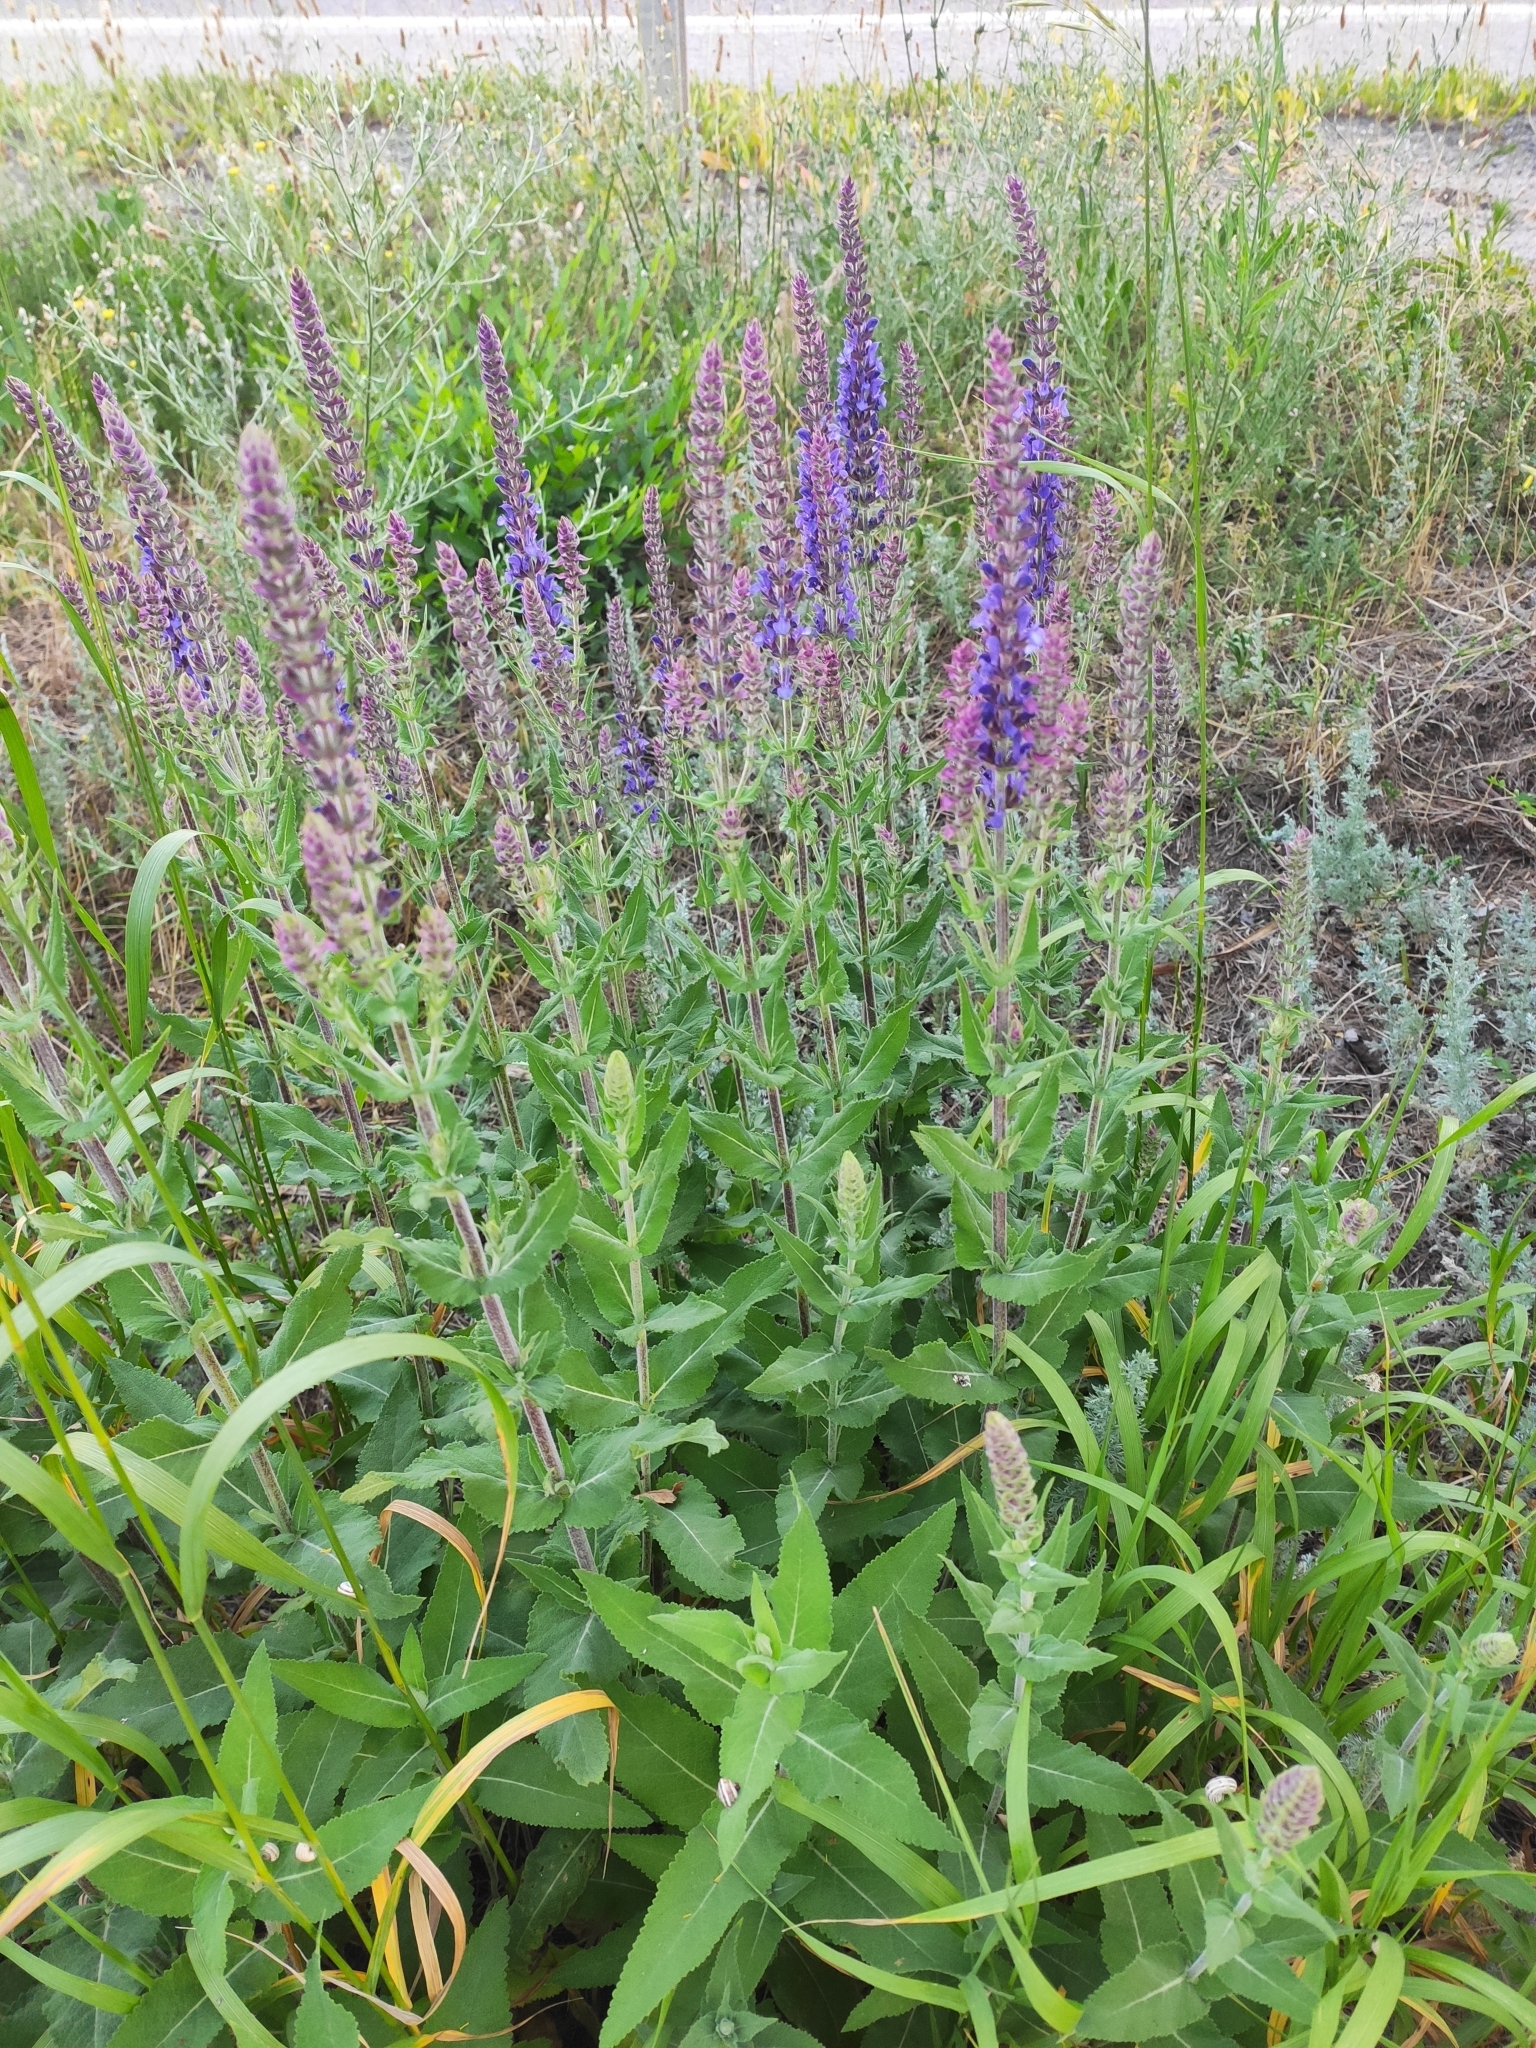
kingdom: Plantae
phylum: Tracheophyta
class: Magnoliopsida
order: Lamiales
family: Lamiaceae
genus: Salvia
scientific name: Salvia nemorosa
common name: Balkan clary
